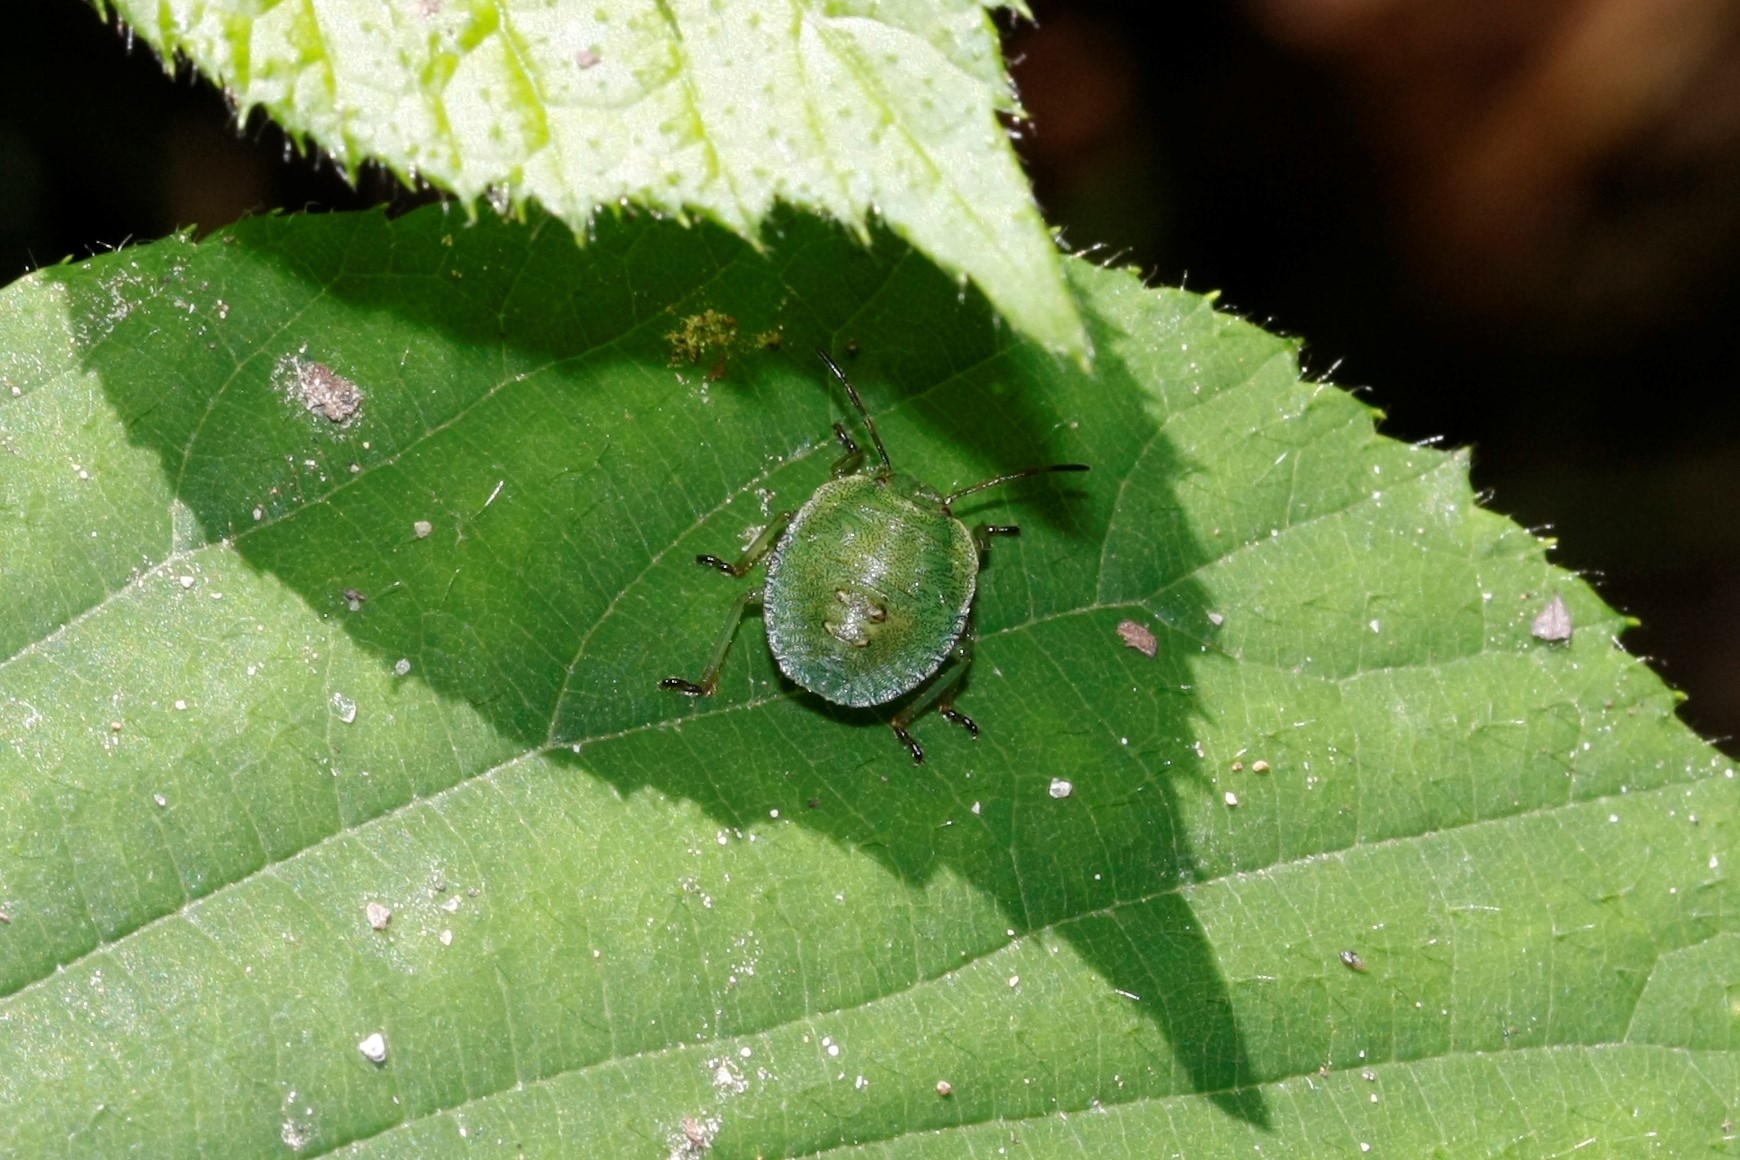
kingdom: Animalia
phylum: Arthropoda
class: Insecta
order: Hemiptera
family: Pentatomidae
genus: Palomena
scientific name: Palomena prasina
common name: Green shieldbug
